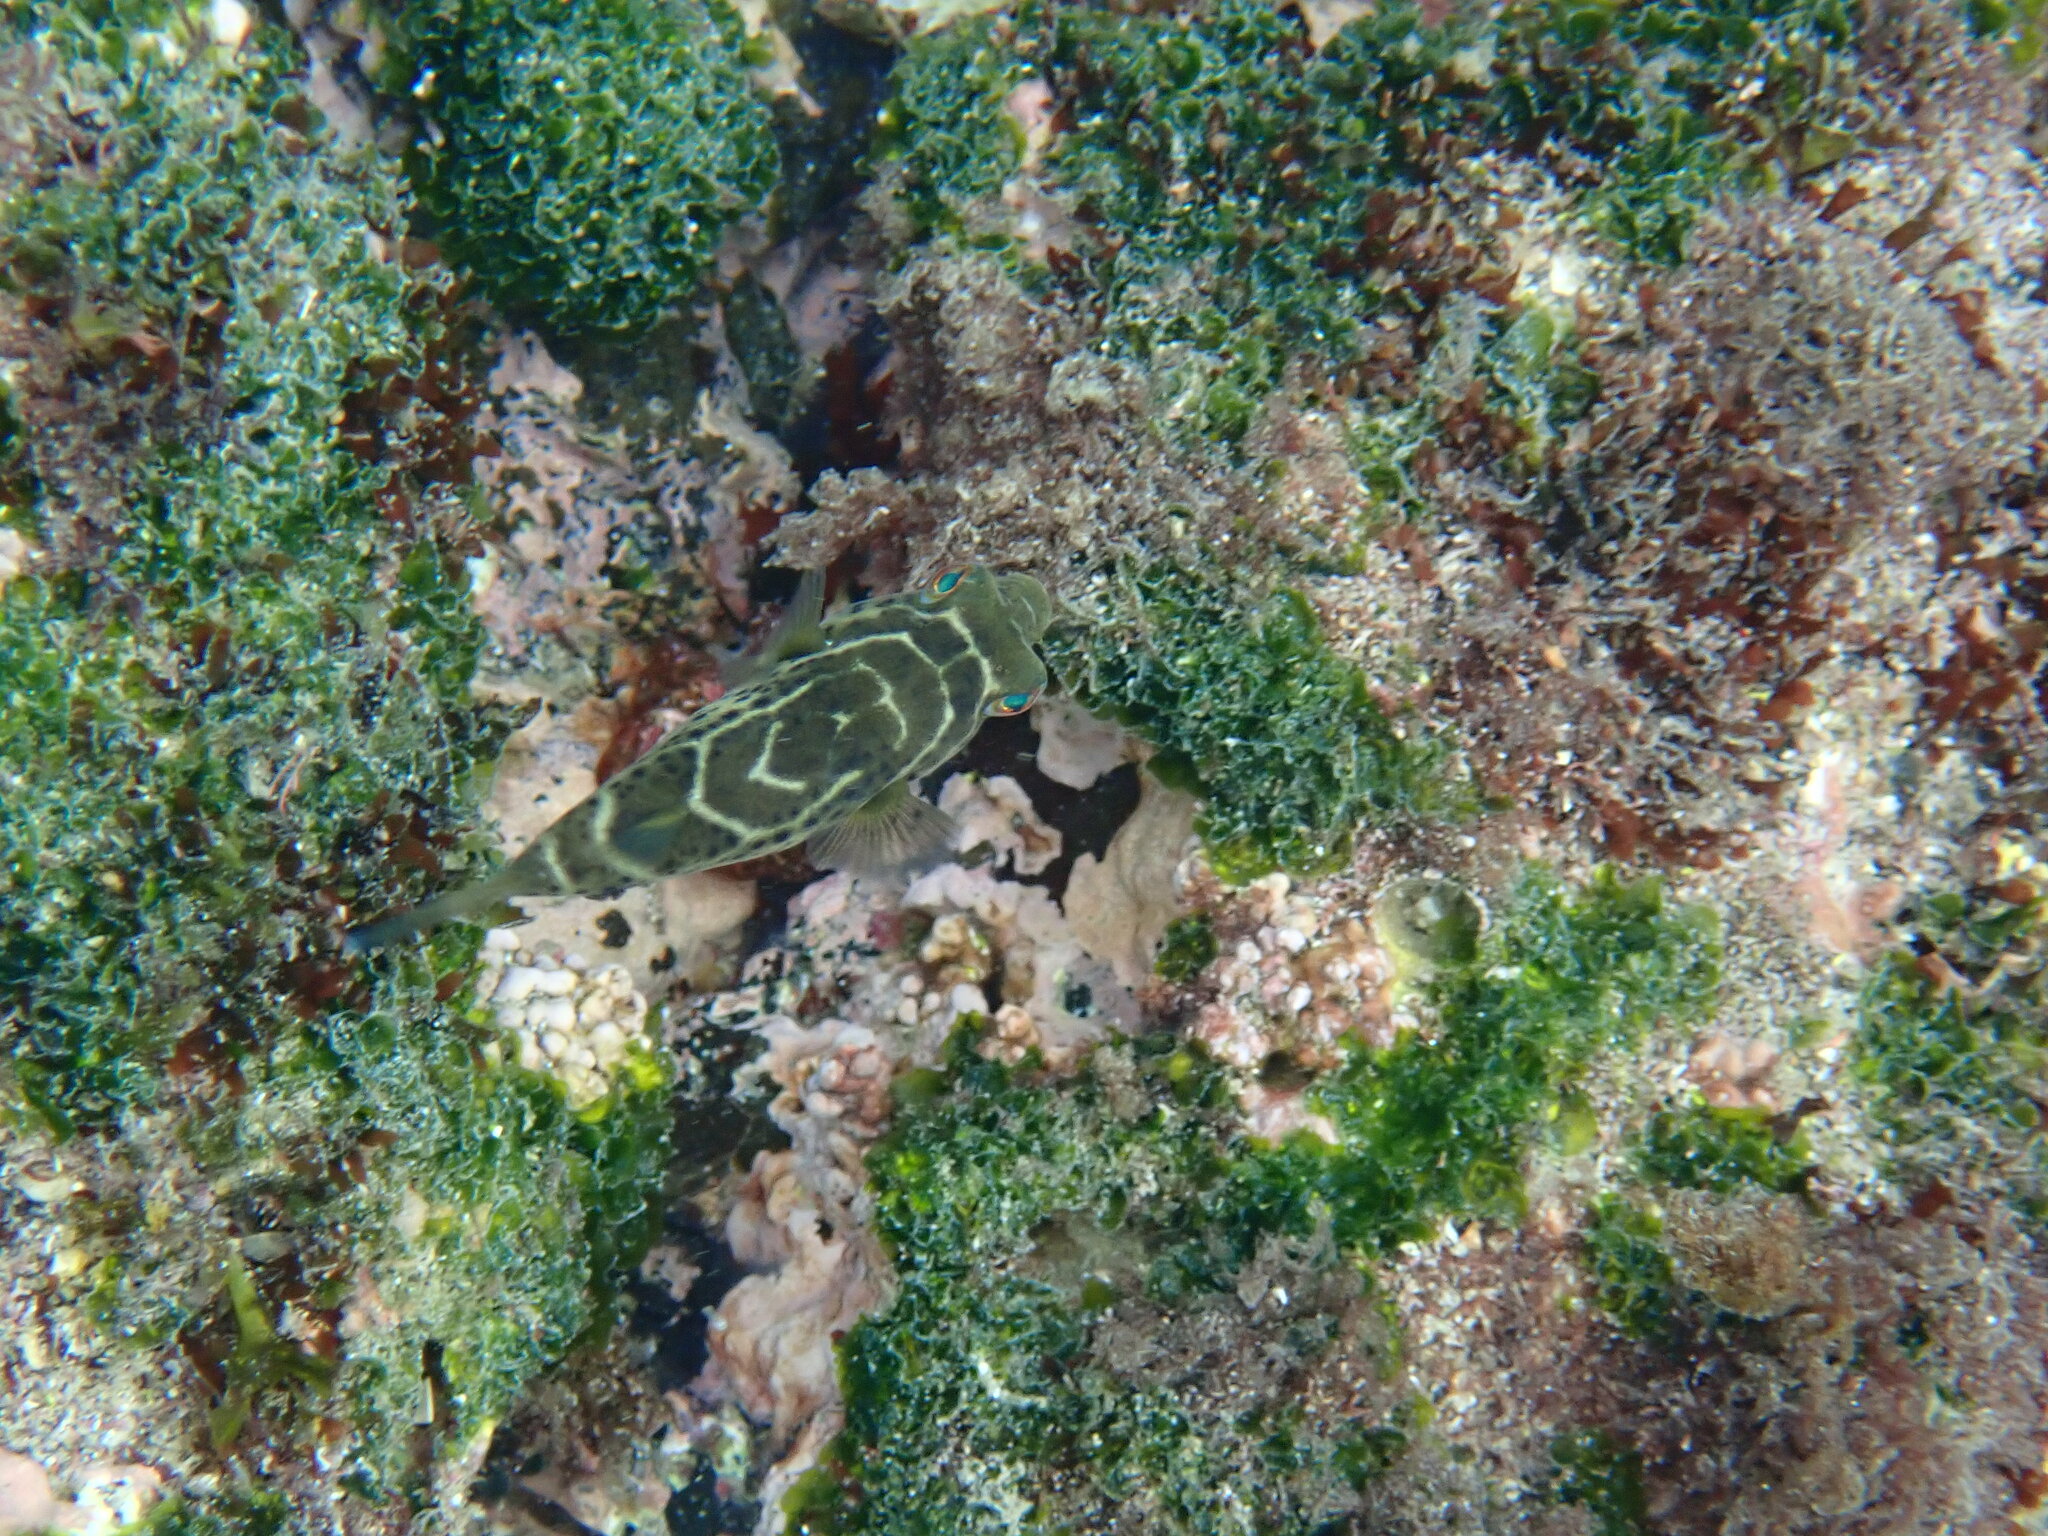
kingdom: Animalia
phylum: Chordata
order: Tetraodontiformes
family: Tetraodontidae
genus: Sphoeroides
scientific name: Sphoeroides annulatus
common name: Bullseye puffer
